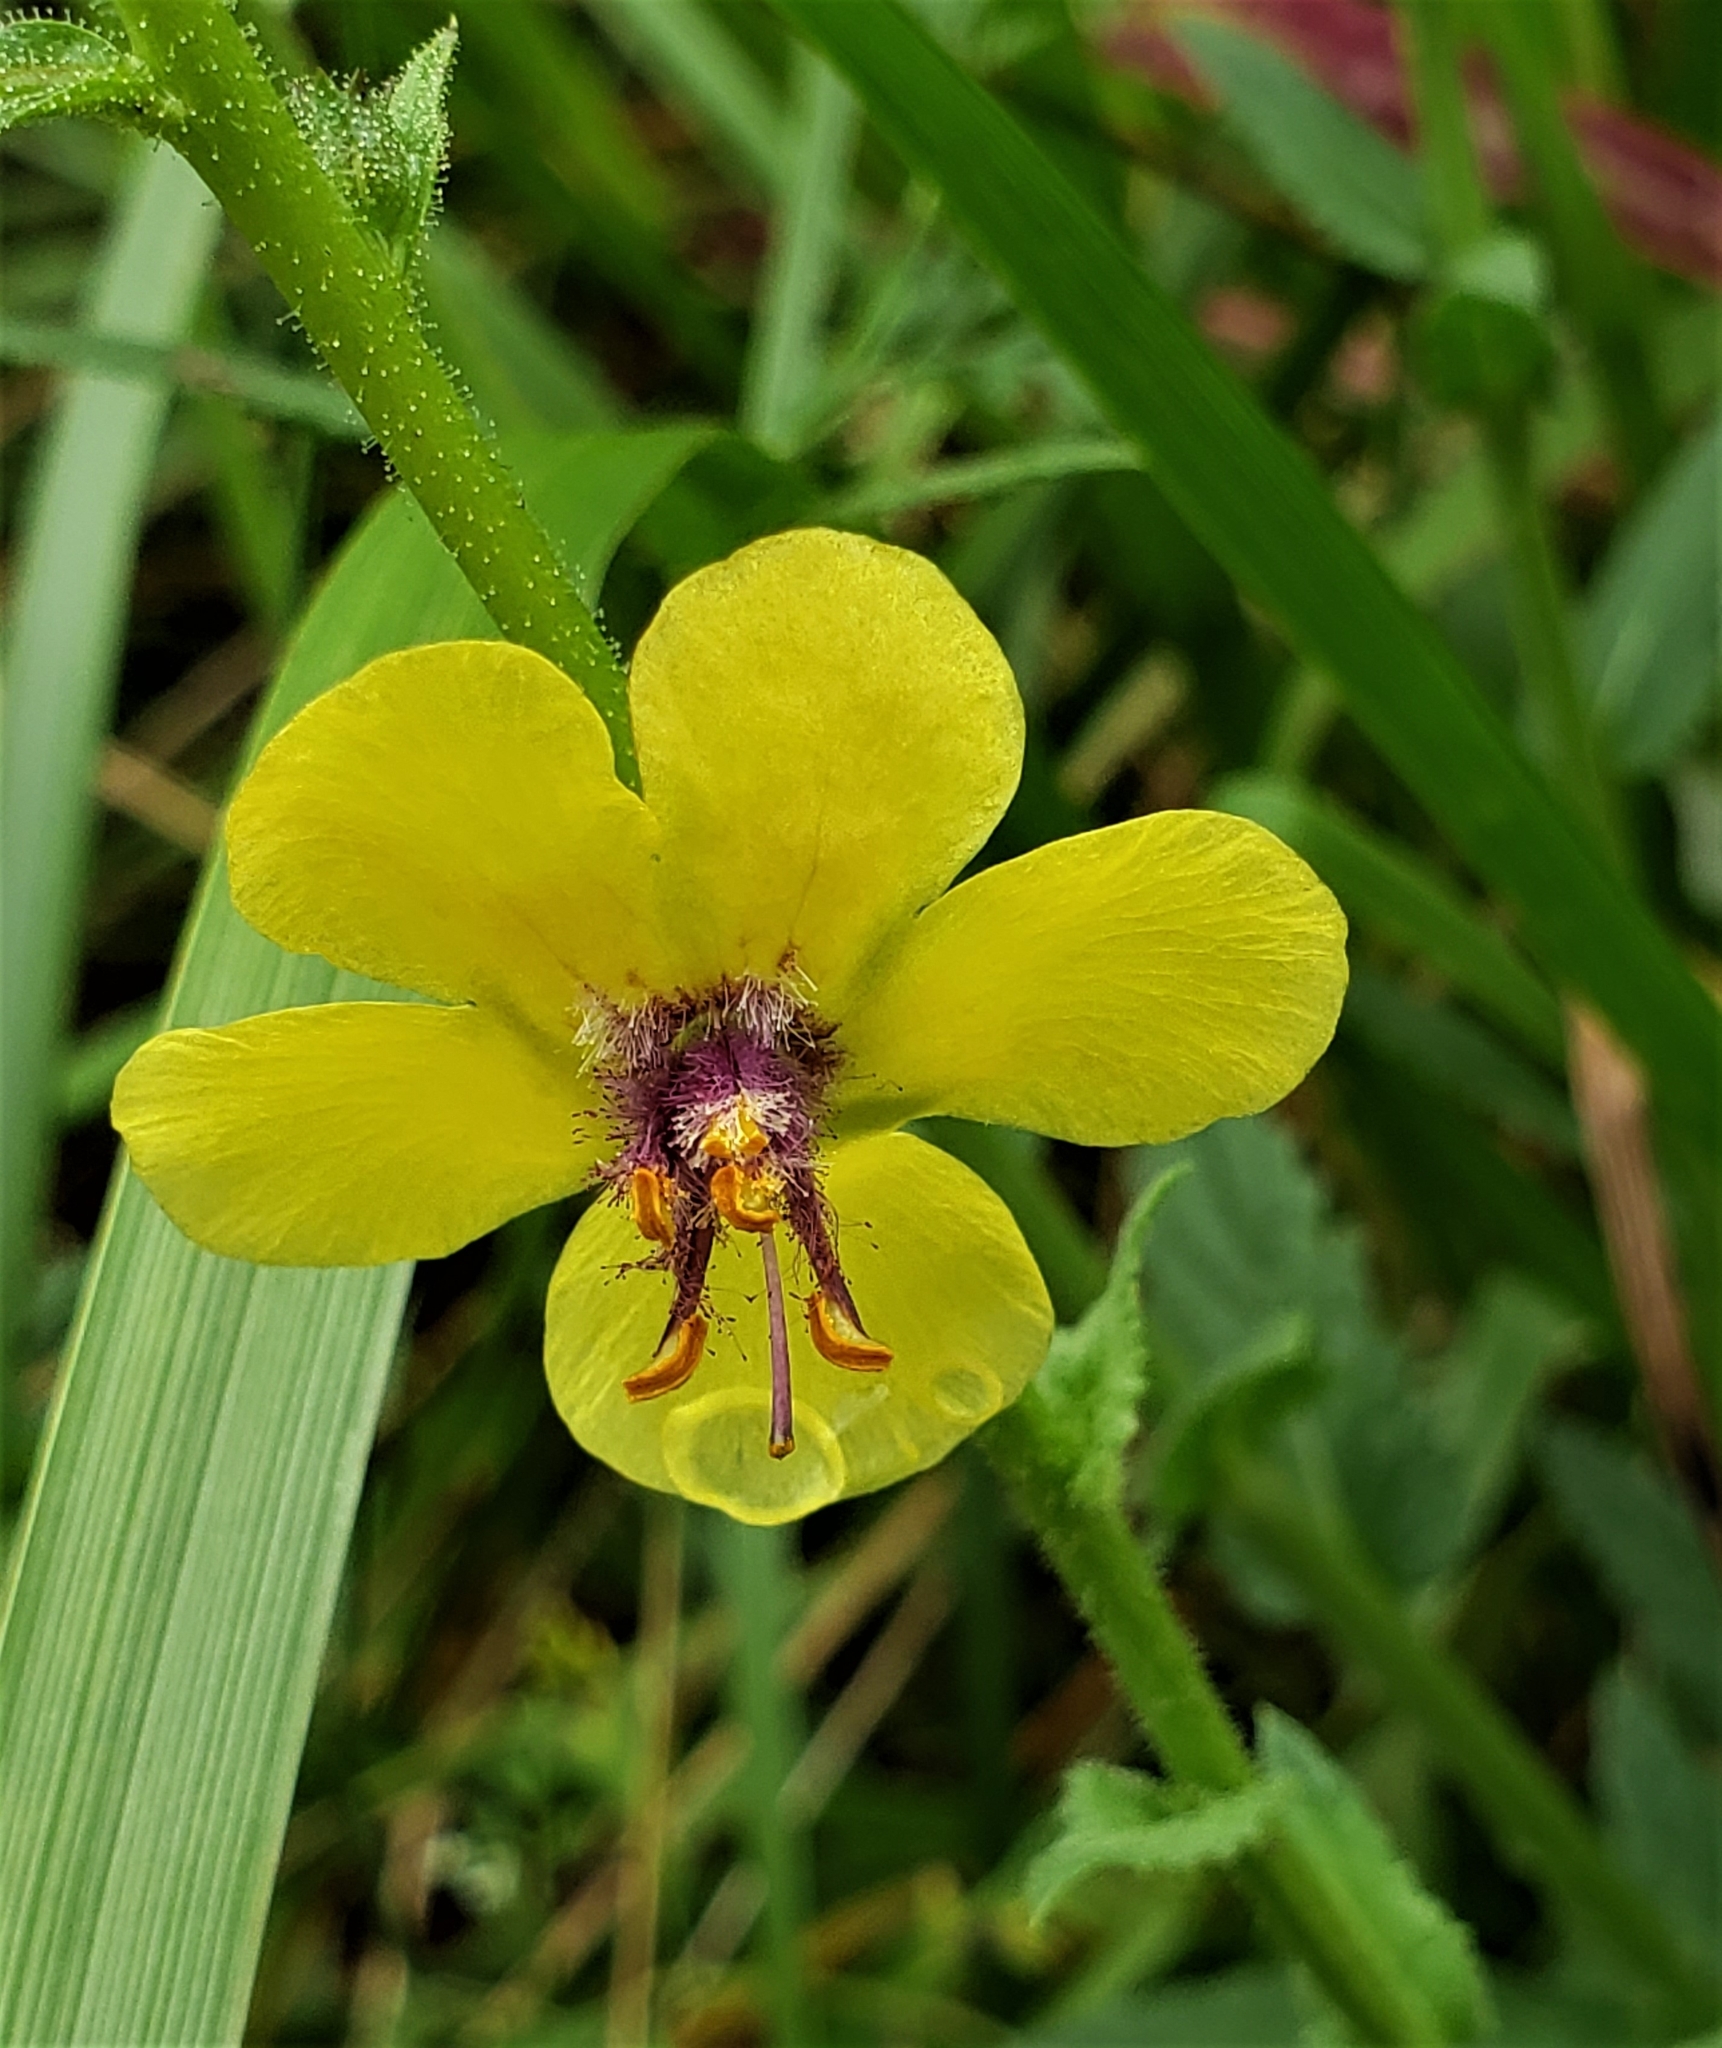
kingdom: Plantae
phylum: Tracheophyta
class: Magnoliopsida
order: Lamiales
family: Scrophulariaceae
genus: Verbascum
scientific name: Verbascum blattaria
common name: Moth mullein
